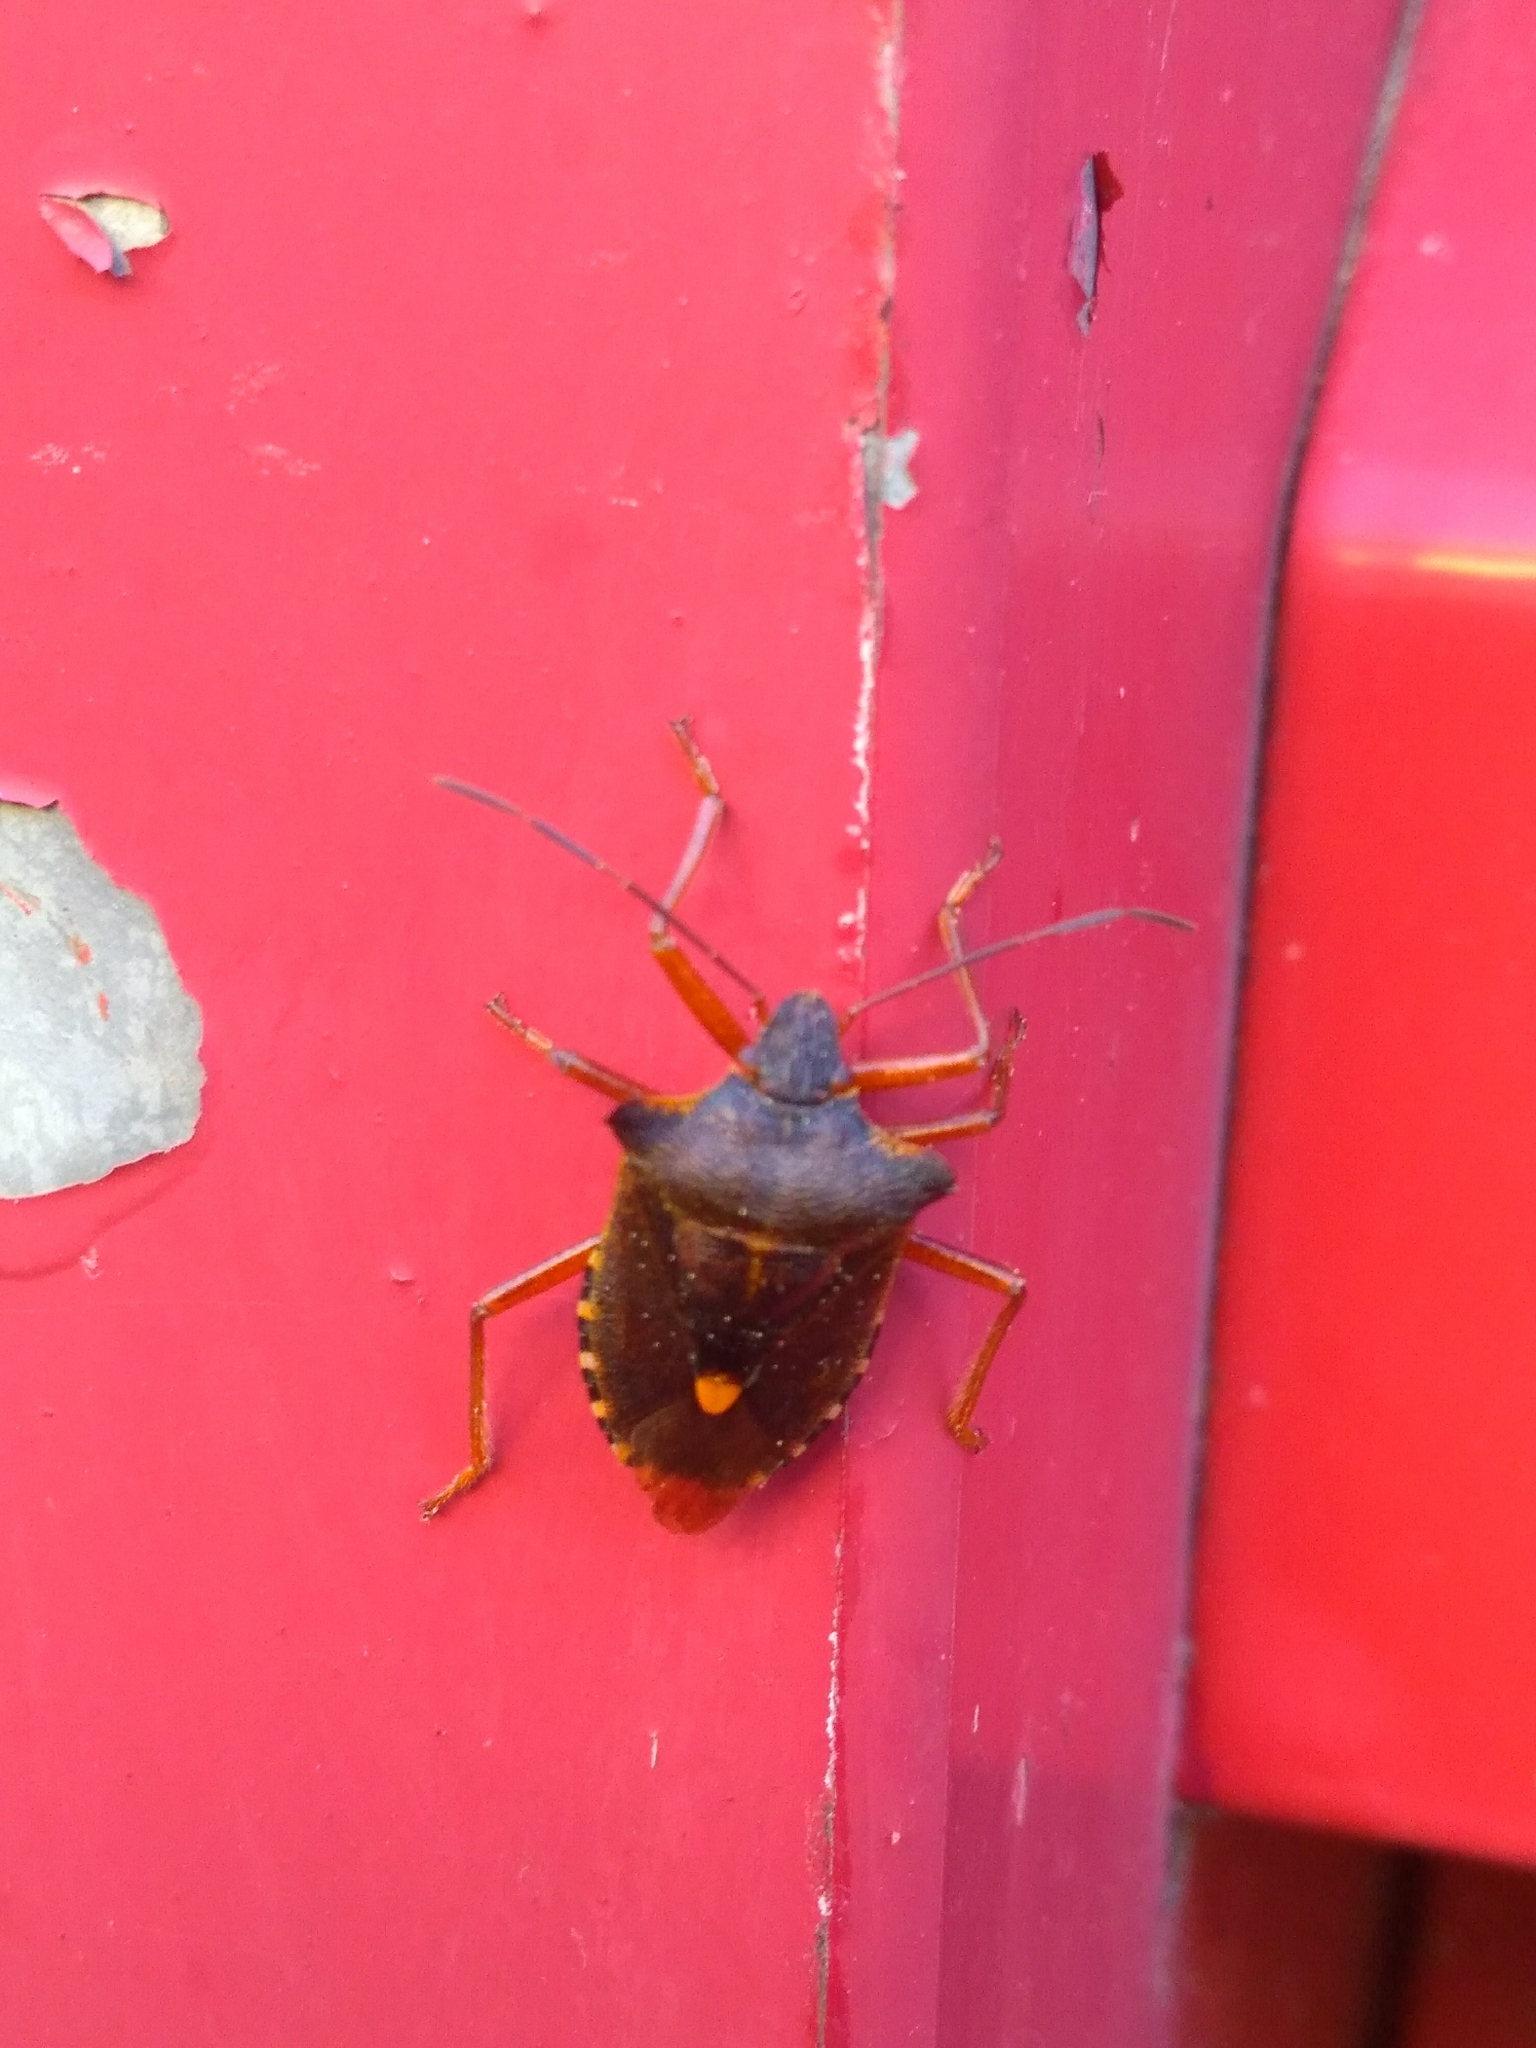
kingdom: Animalia
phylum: Arthropoda
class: Insecta
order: Hemiptera
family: Pentatomidae
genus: Pentatoma
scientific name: Pentatoma rufipes
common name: Forest bug
